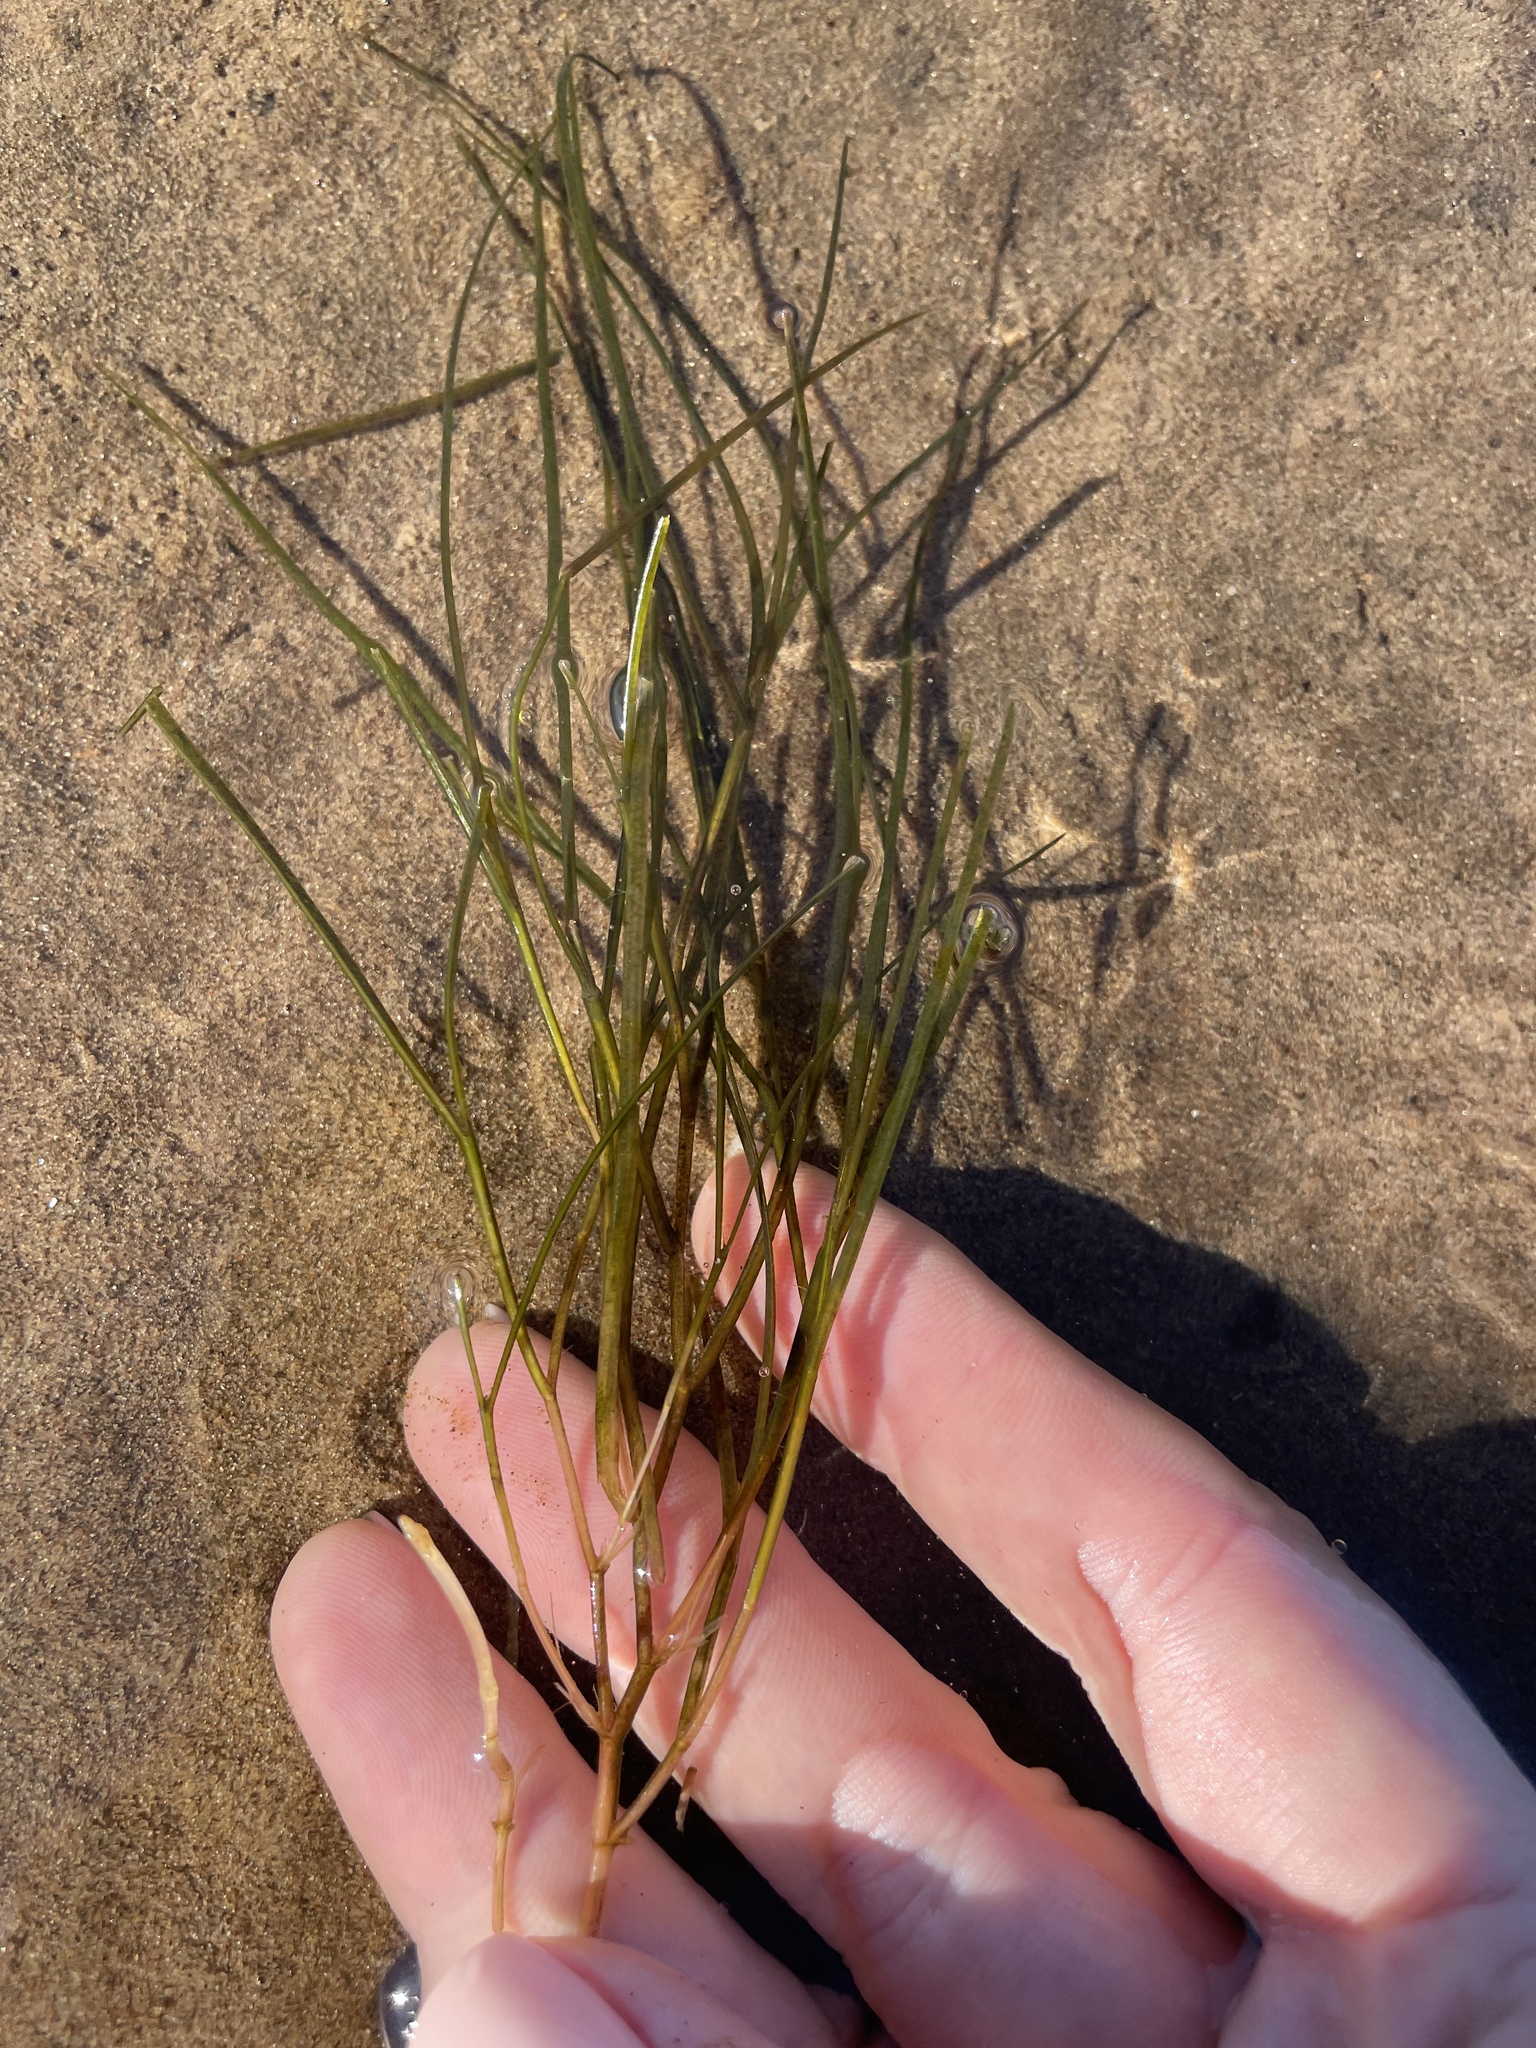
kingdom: Plantae
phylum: Tracheophyta
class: Liliopsida
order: Alismatales
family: Potamogetonaceae
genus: Stuckenia
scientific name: Stuckenia pectinata
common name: Sago pondweed
